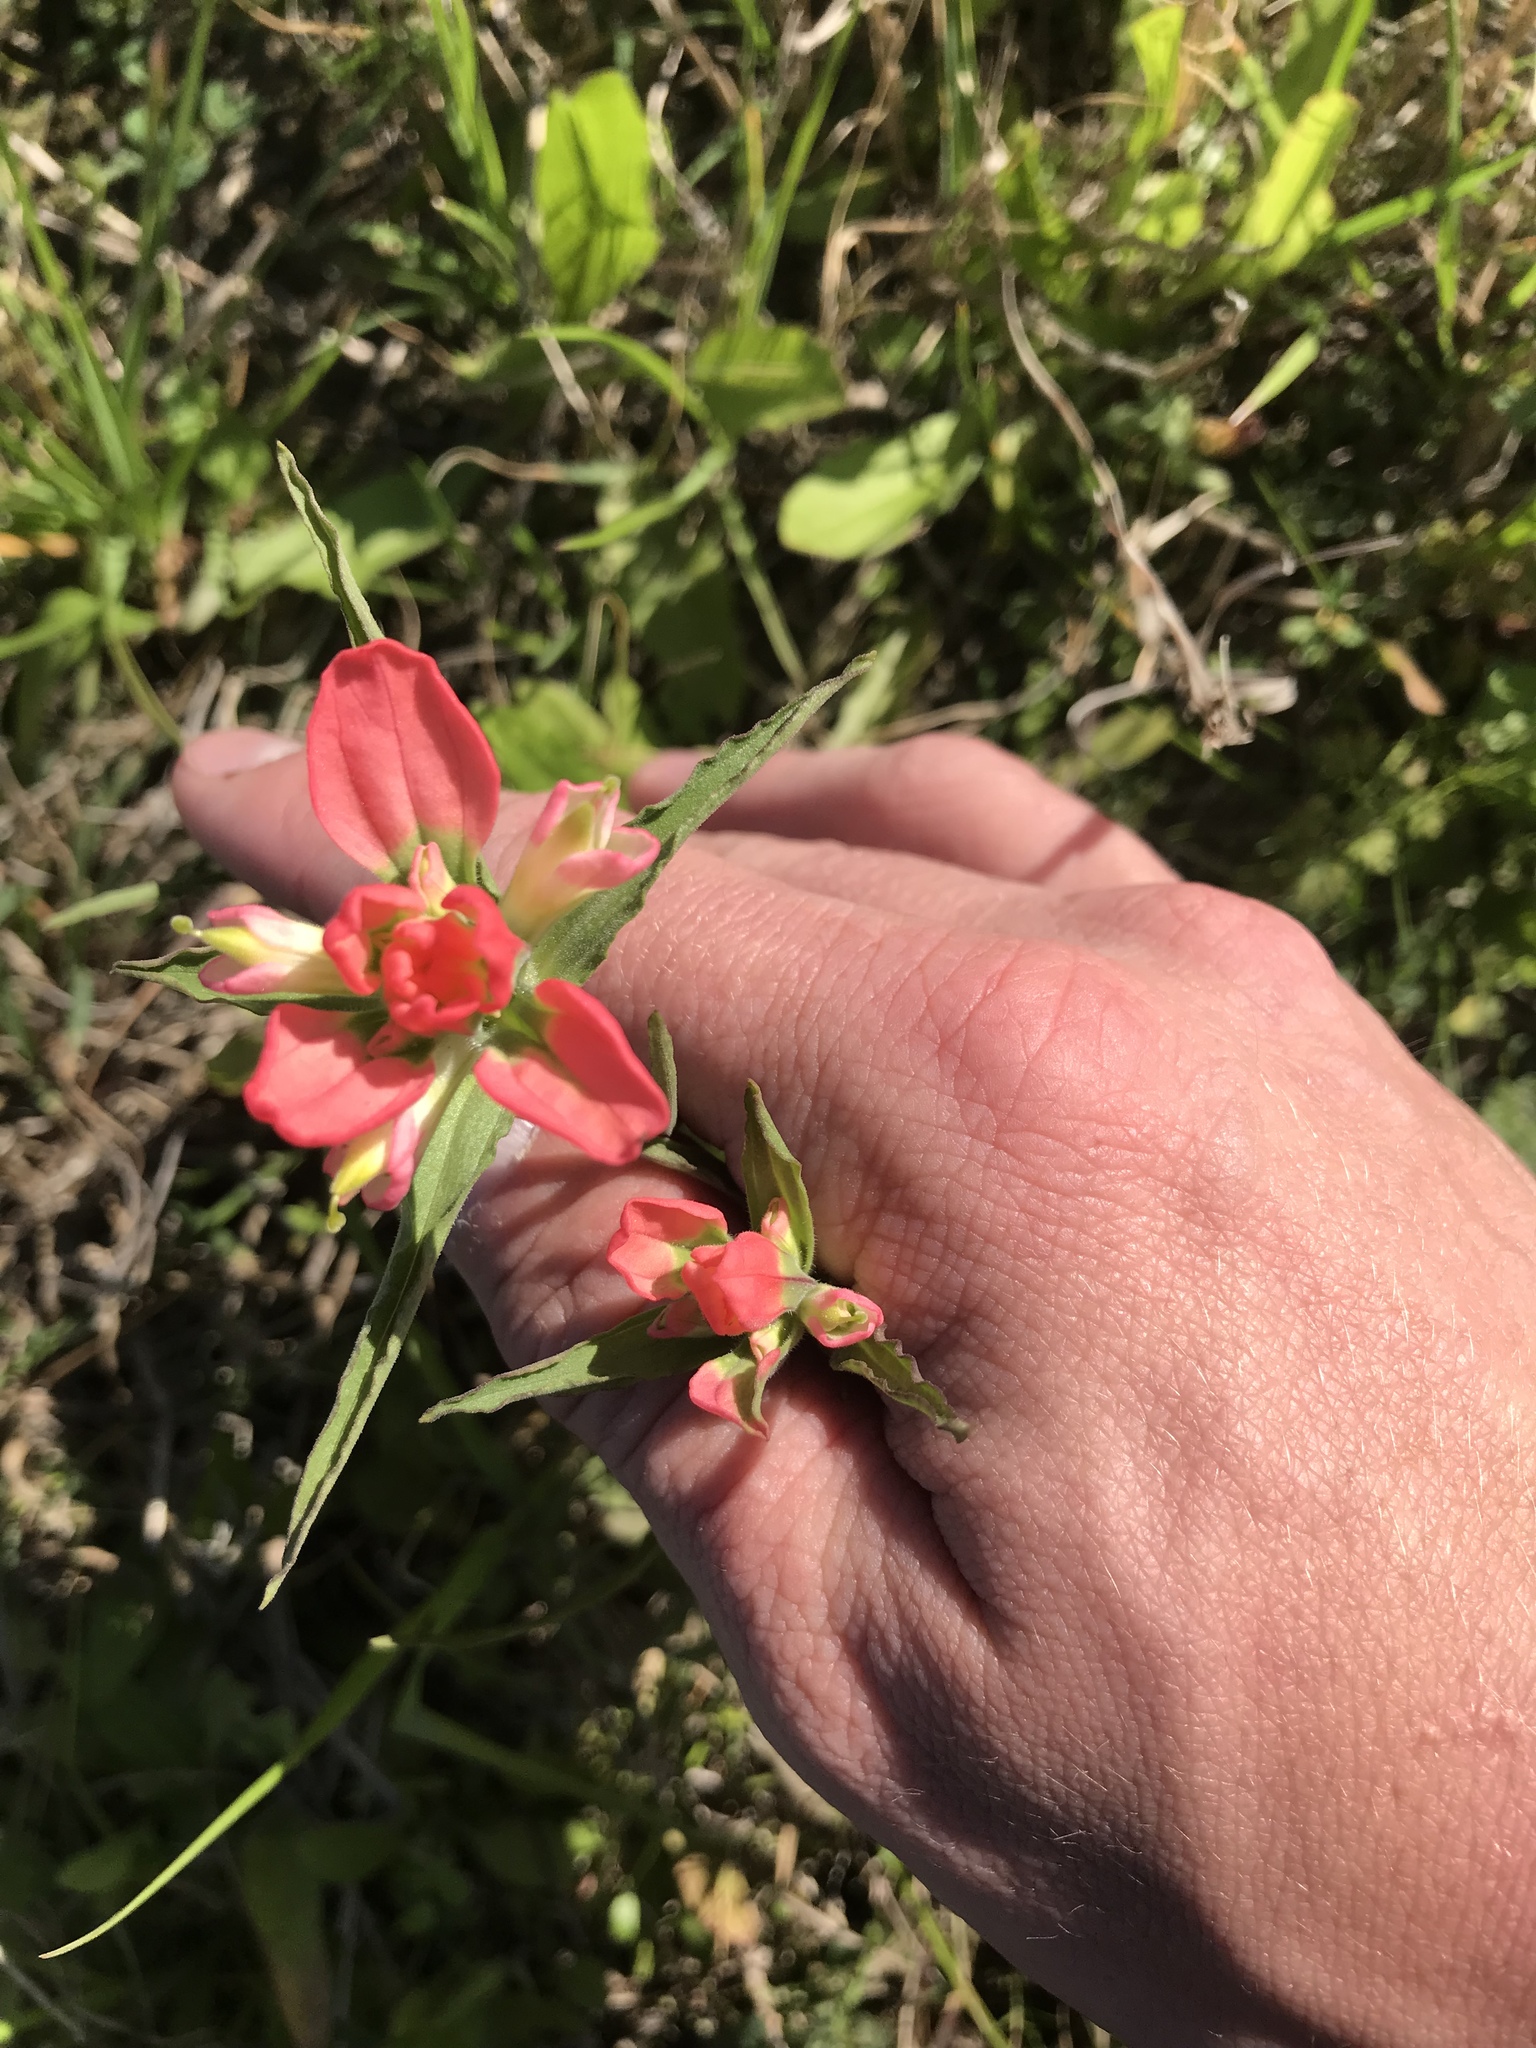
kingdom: Plantae
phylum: Tracheophyta
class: Magnoliopsida
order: Lamiales
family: Orobanchaceae
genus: Castilleja
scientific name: Castilleja indivisa
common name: Texas paintbrush
